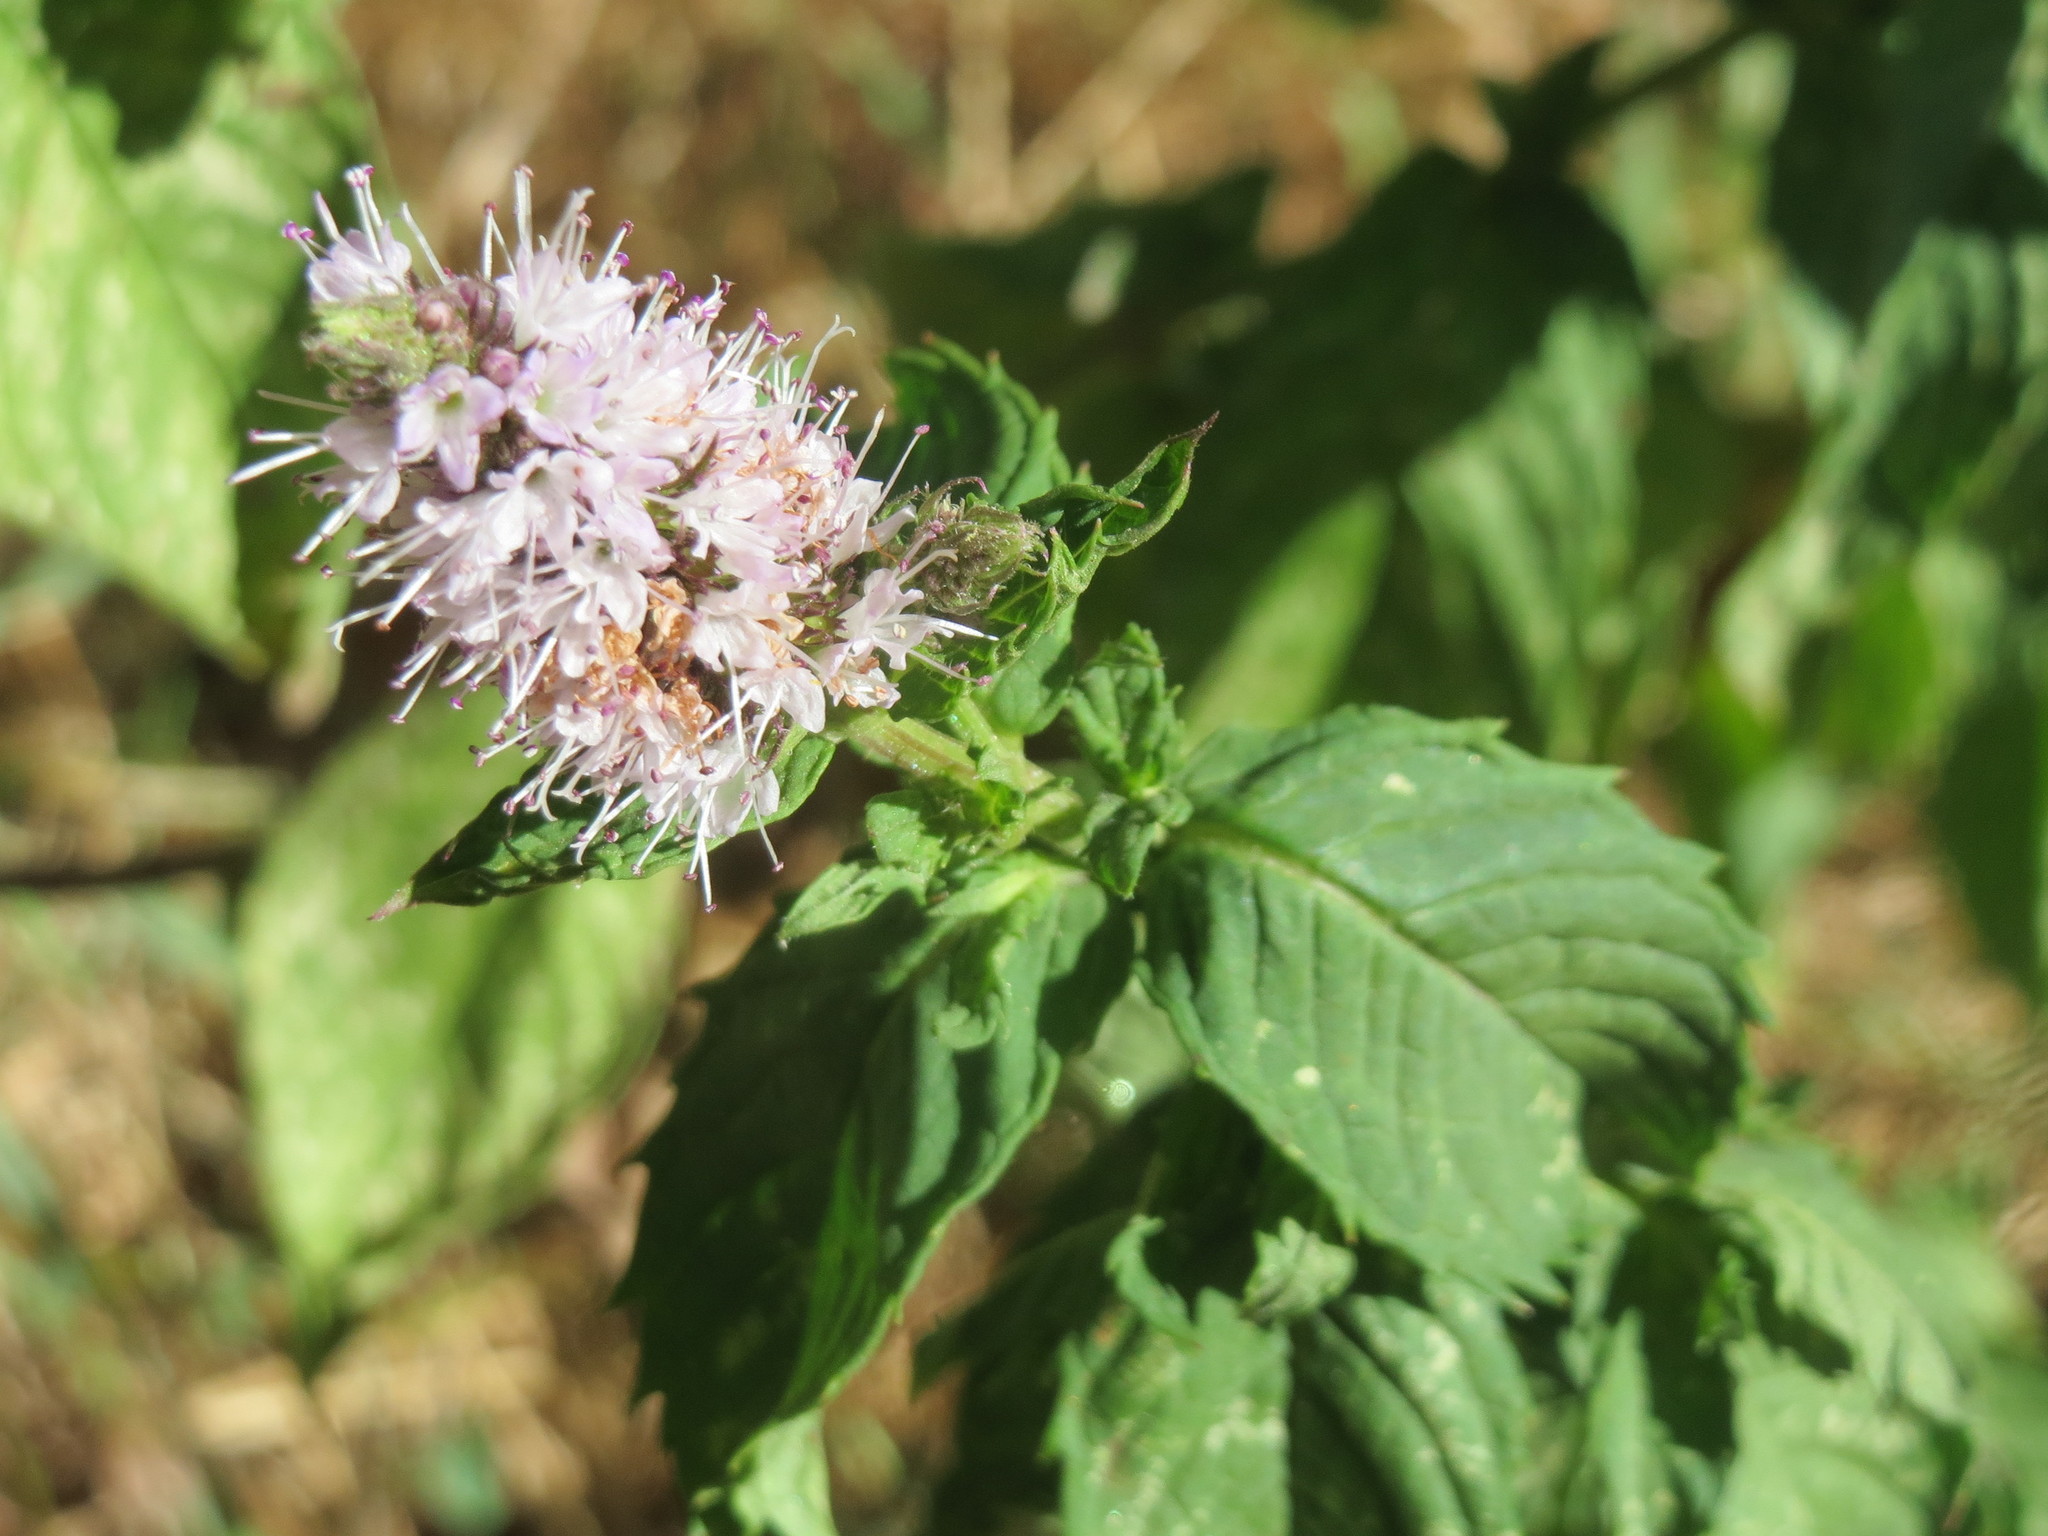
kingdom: Plantae
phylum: Tracheophyta
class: Magnoliopsida
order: Lamiales
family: Lamiaceae
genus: Mentha
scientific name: Mentha spicata
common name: Spearmint
